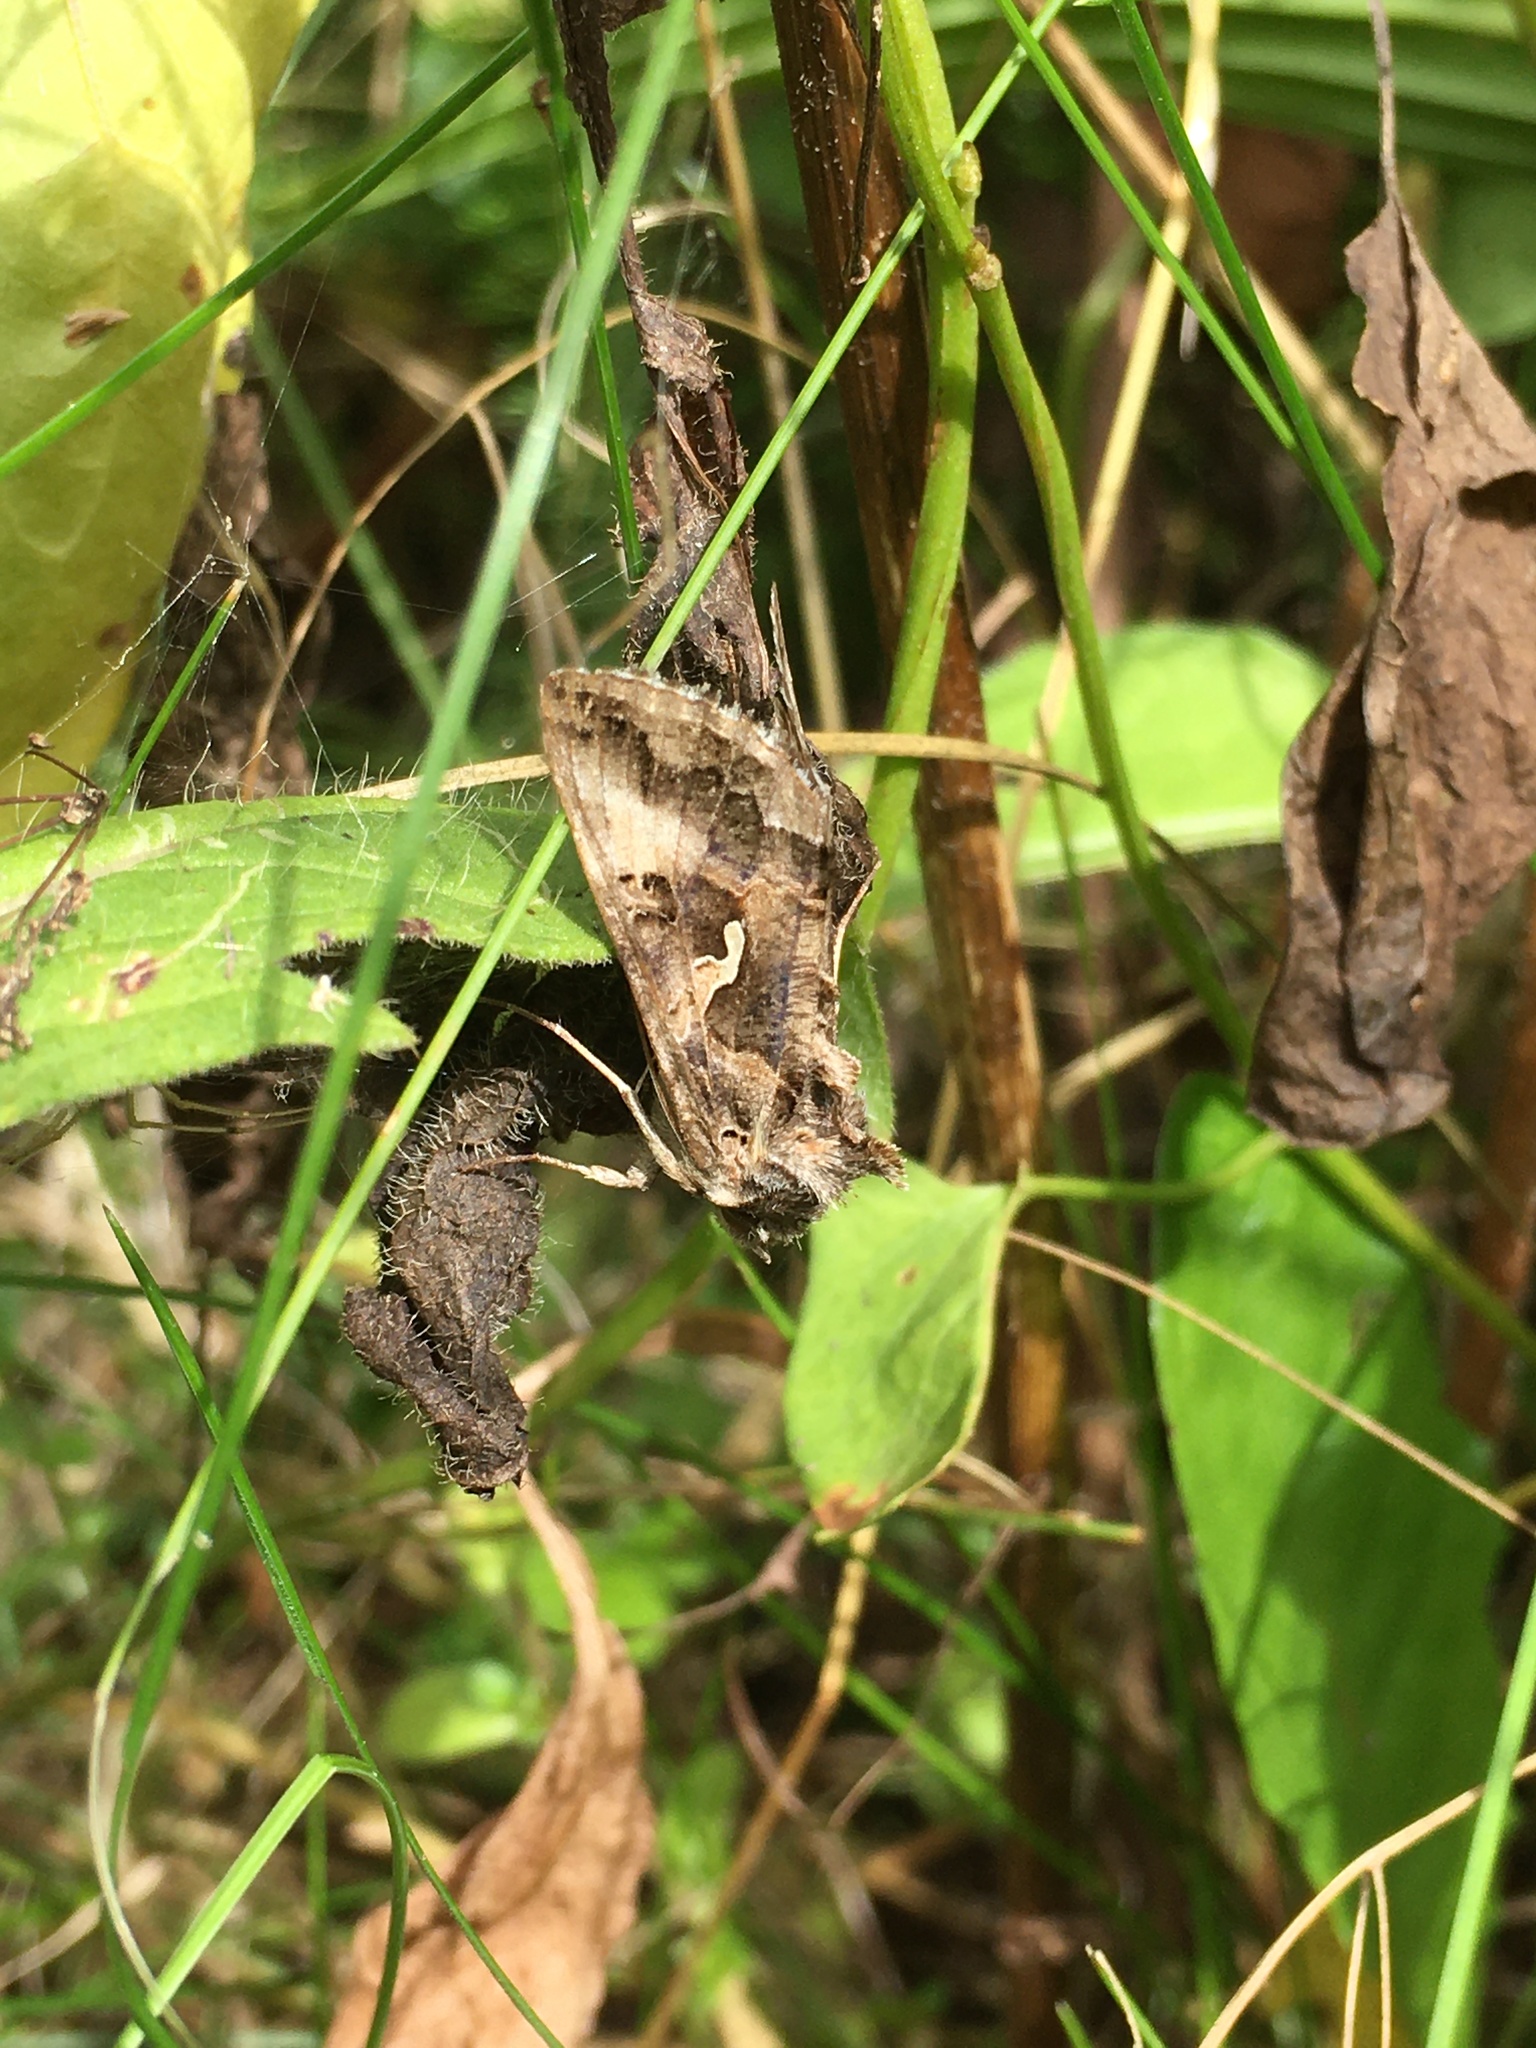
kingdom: Animalia
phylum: Arthropoda
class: Insecta
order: Lepidoptera
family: Noctuidae
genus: Autographa
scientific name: Autographa gamma
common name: Silver y
